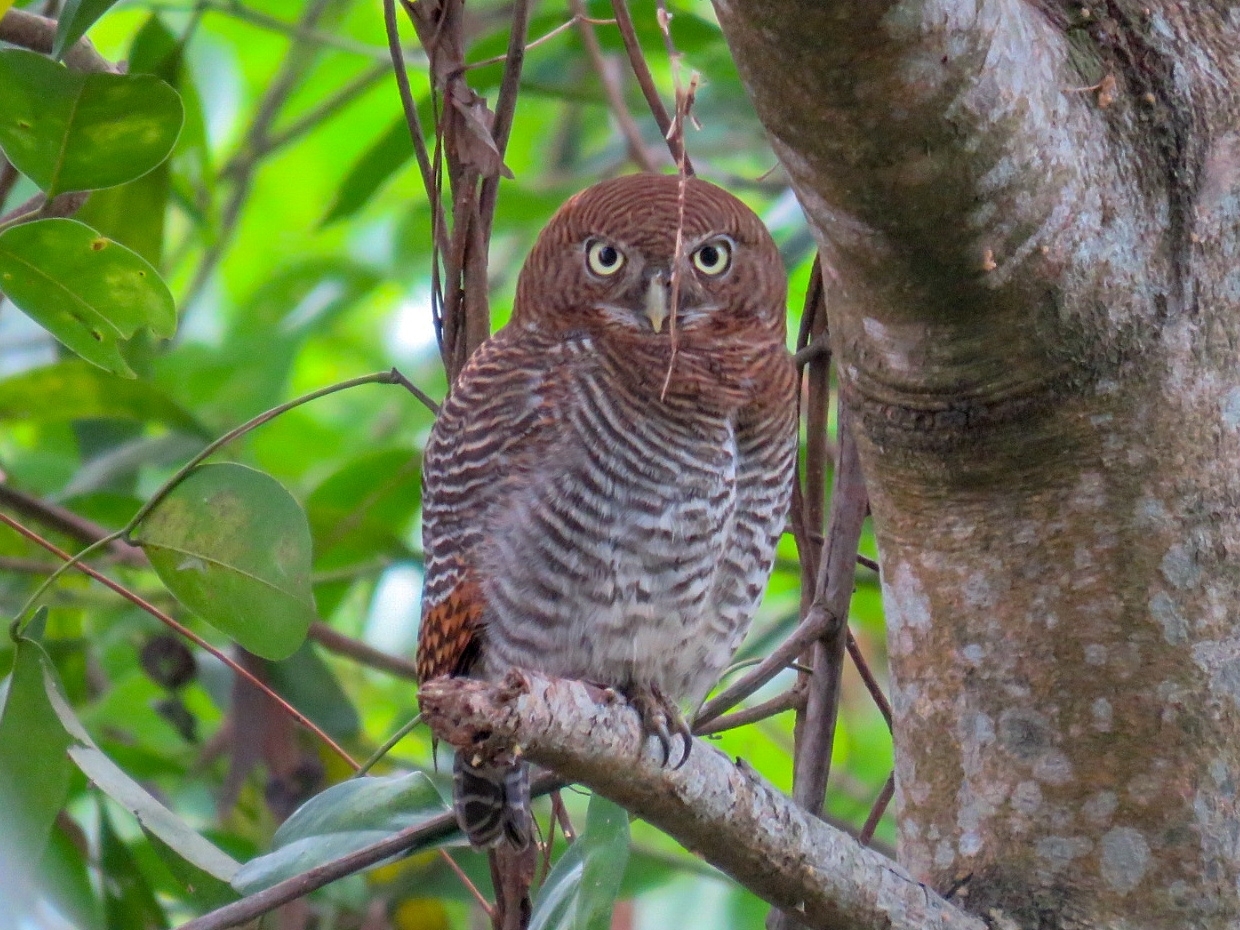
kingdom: Animalia
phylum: Chordata
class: Aves
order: Strigiformes
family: Strigidae
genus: Glaucidium
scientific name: Glaucidium radiatum
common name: Jungle owlet
